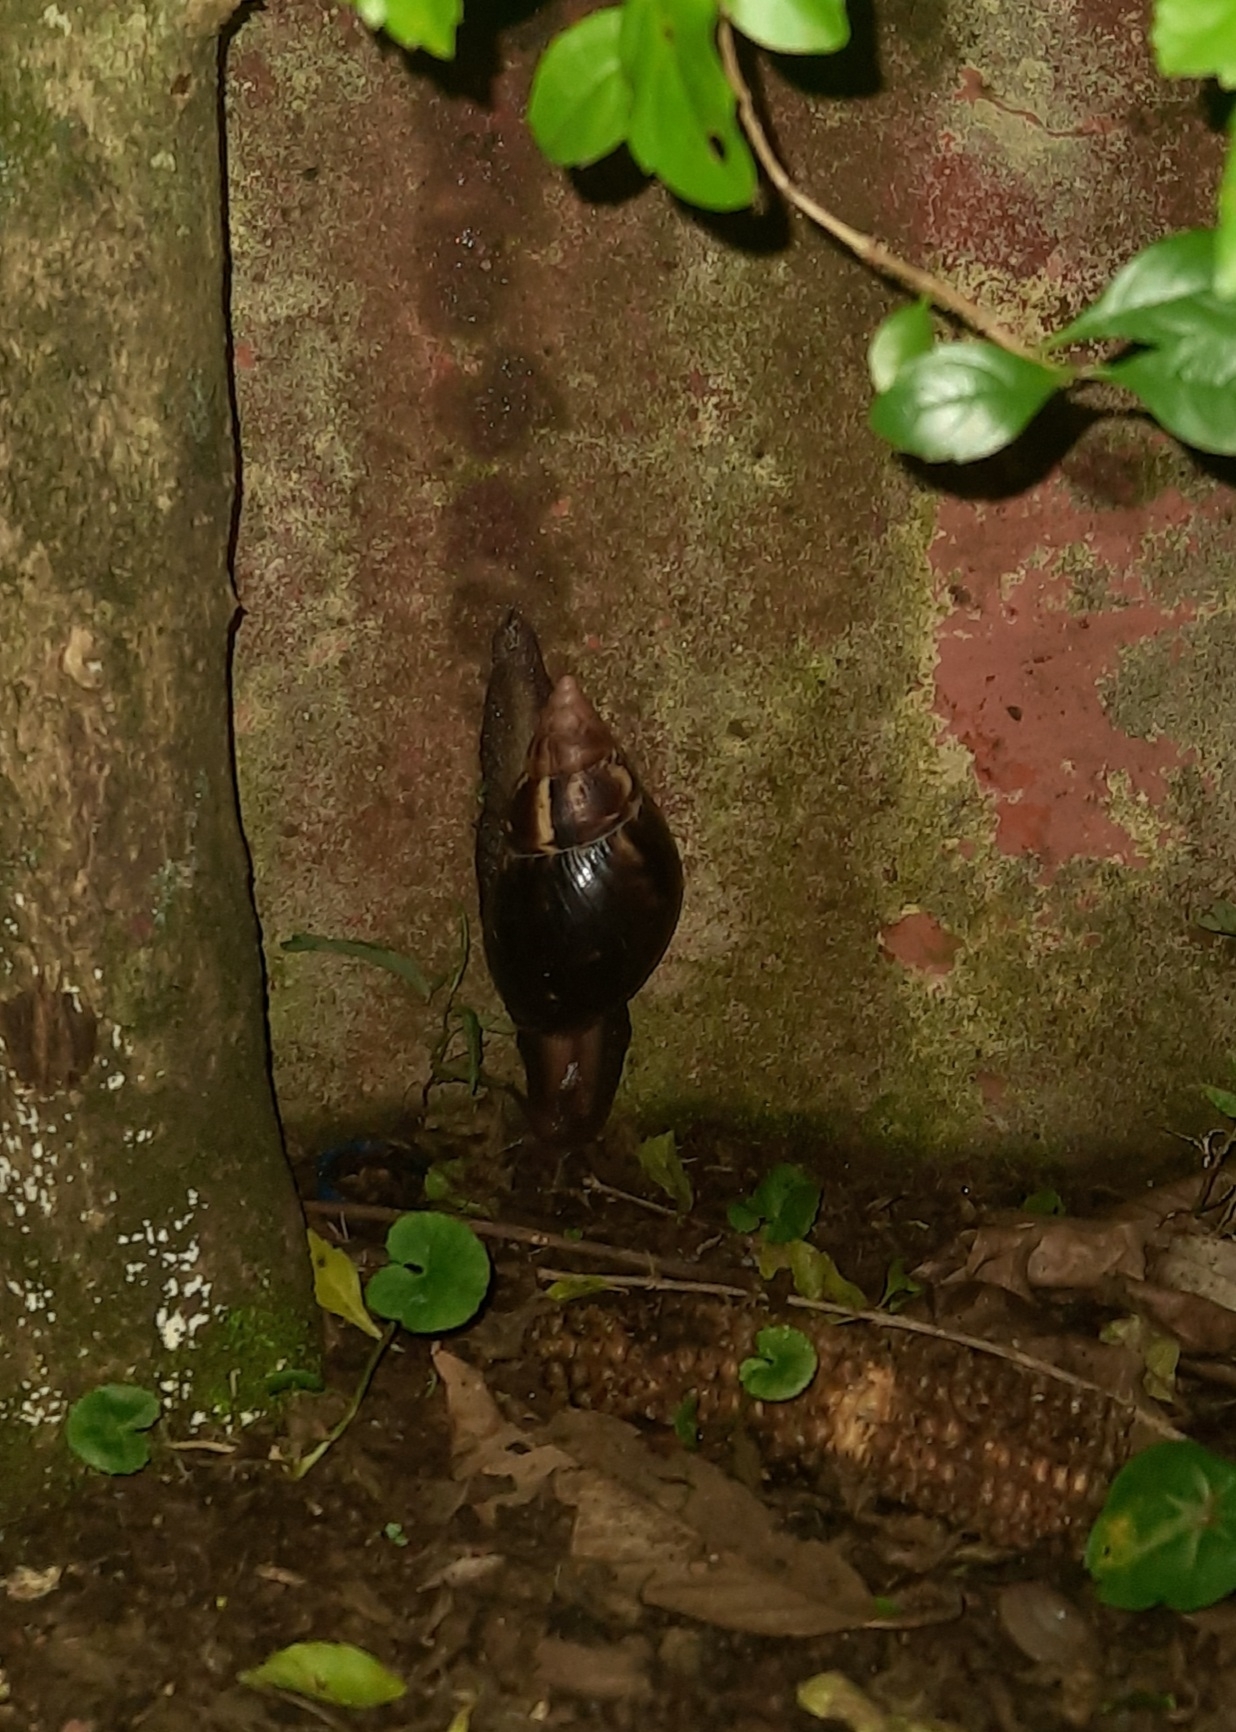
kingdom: Animalia
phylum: Mollusca
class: Gastropoda
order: Stylommatophora
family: Achatinidae
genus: Lissachatina
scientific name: Lissachatina fulica
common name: Giant african snail
